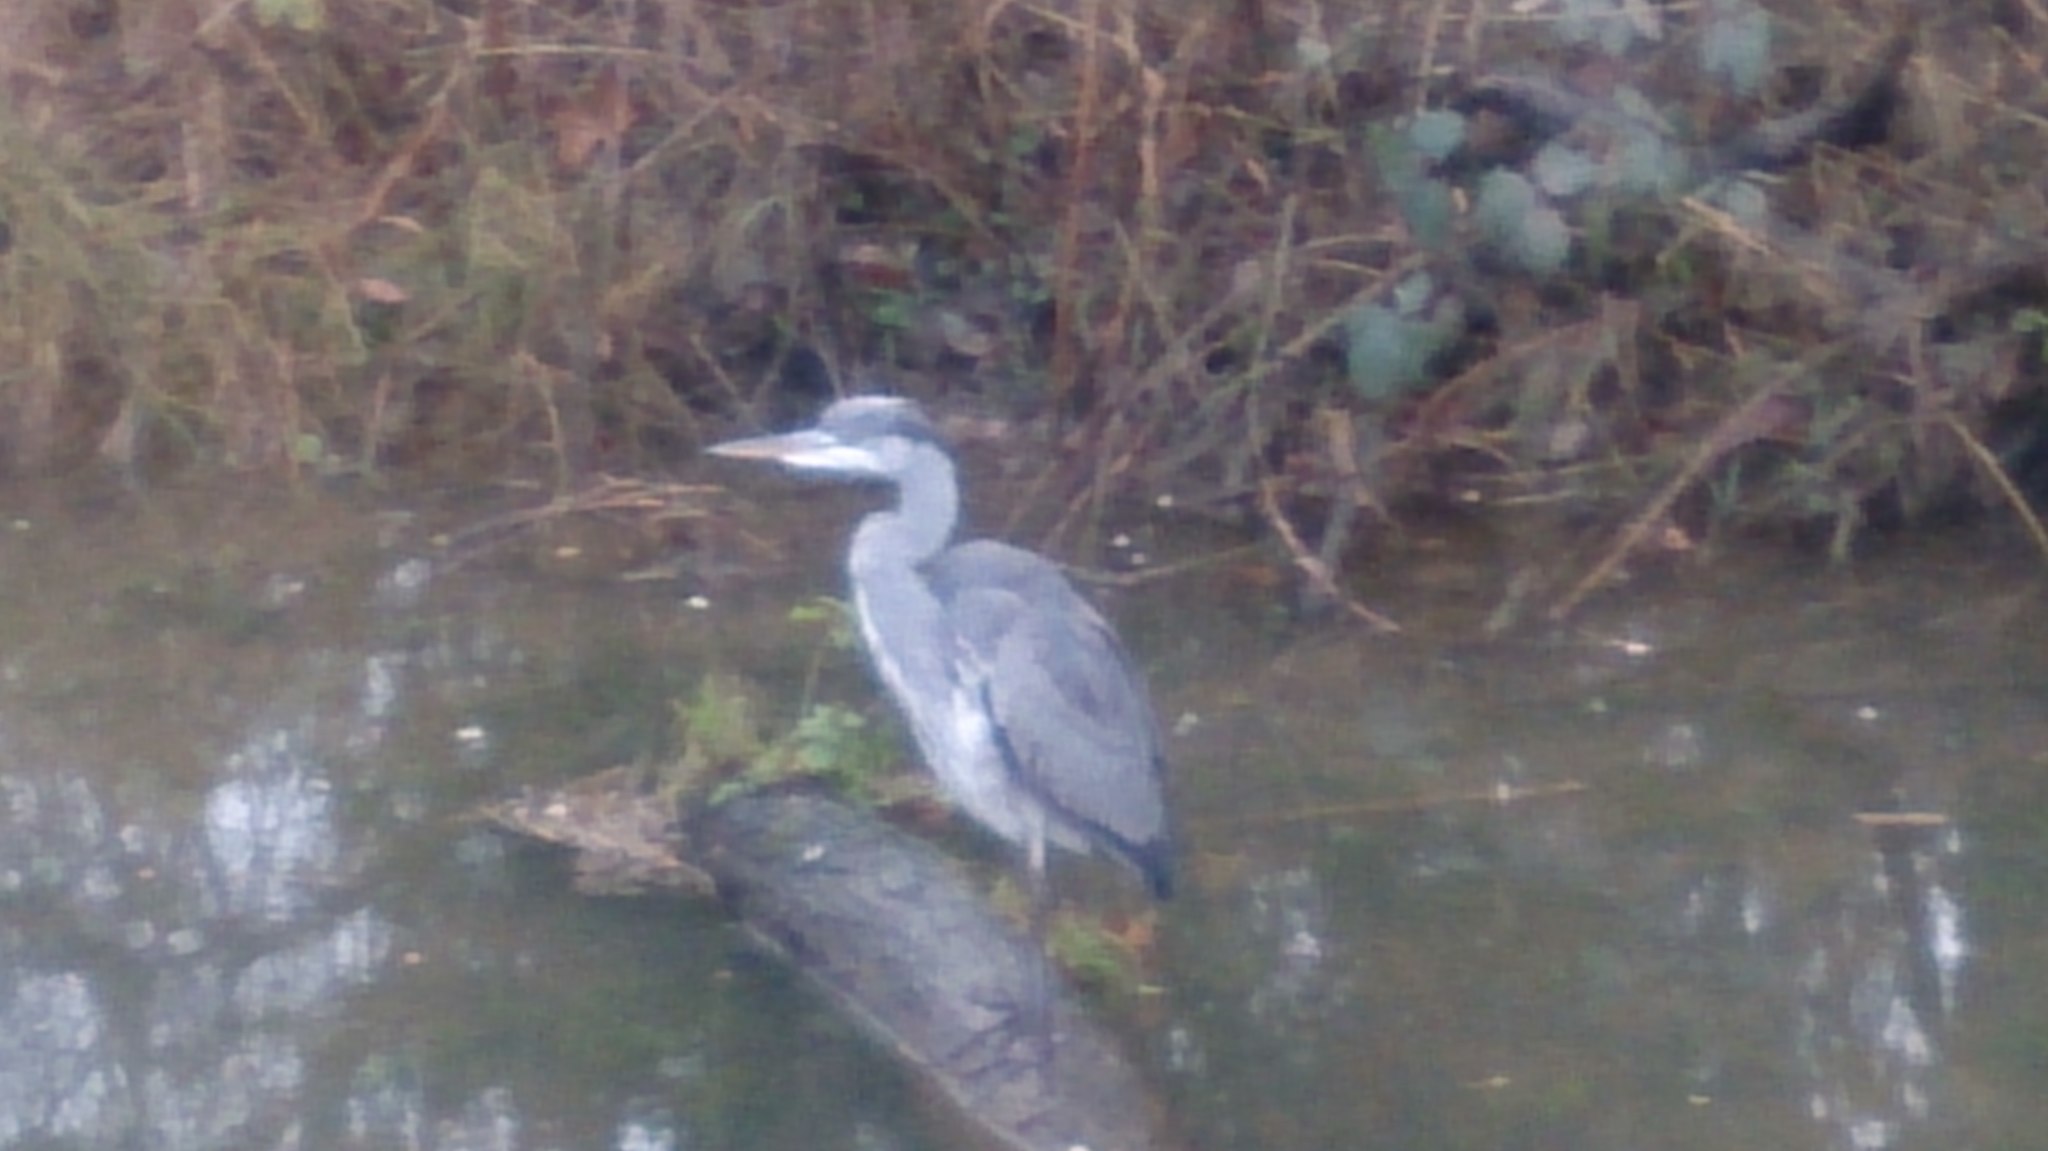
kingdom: Animalia
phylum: Chordata
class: Aves
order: Pelecaniformes
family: Ardeidae
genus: Ardea
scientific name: Ardea cinerea
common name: Grey heron
